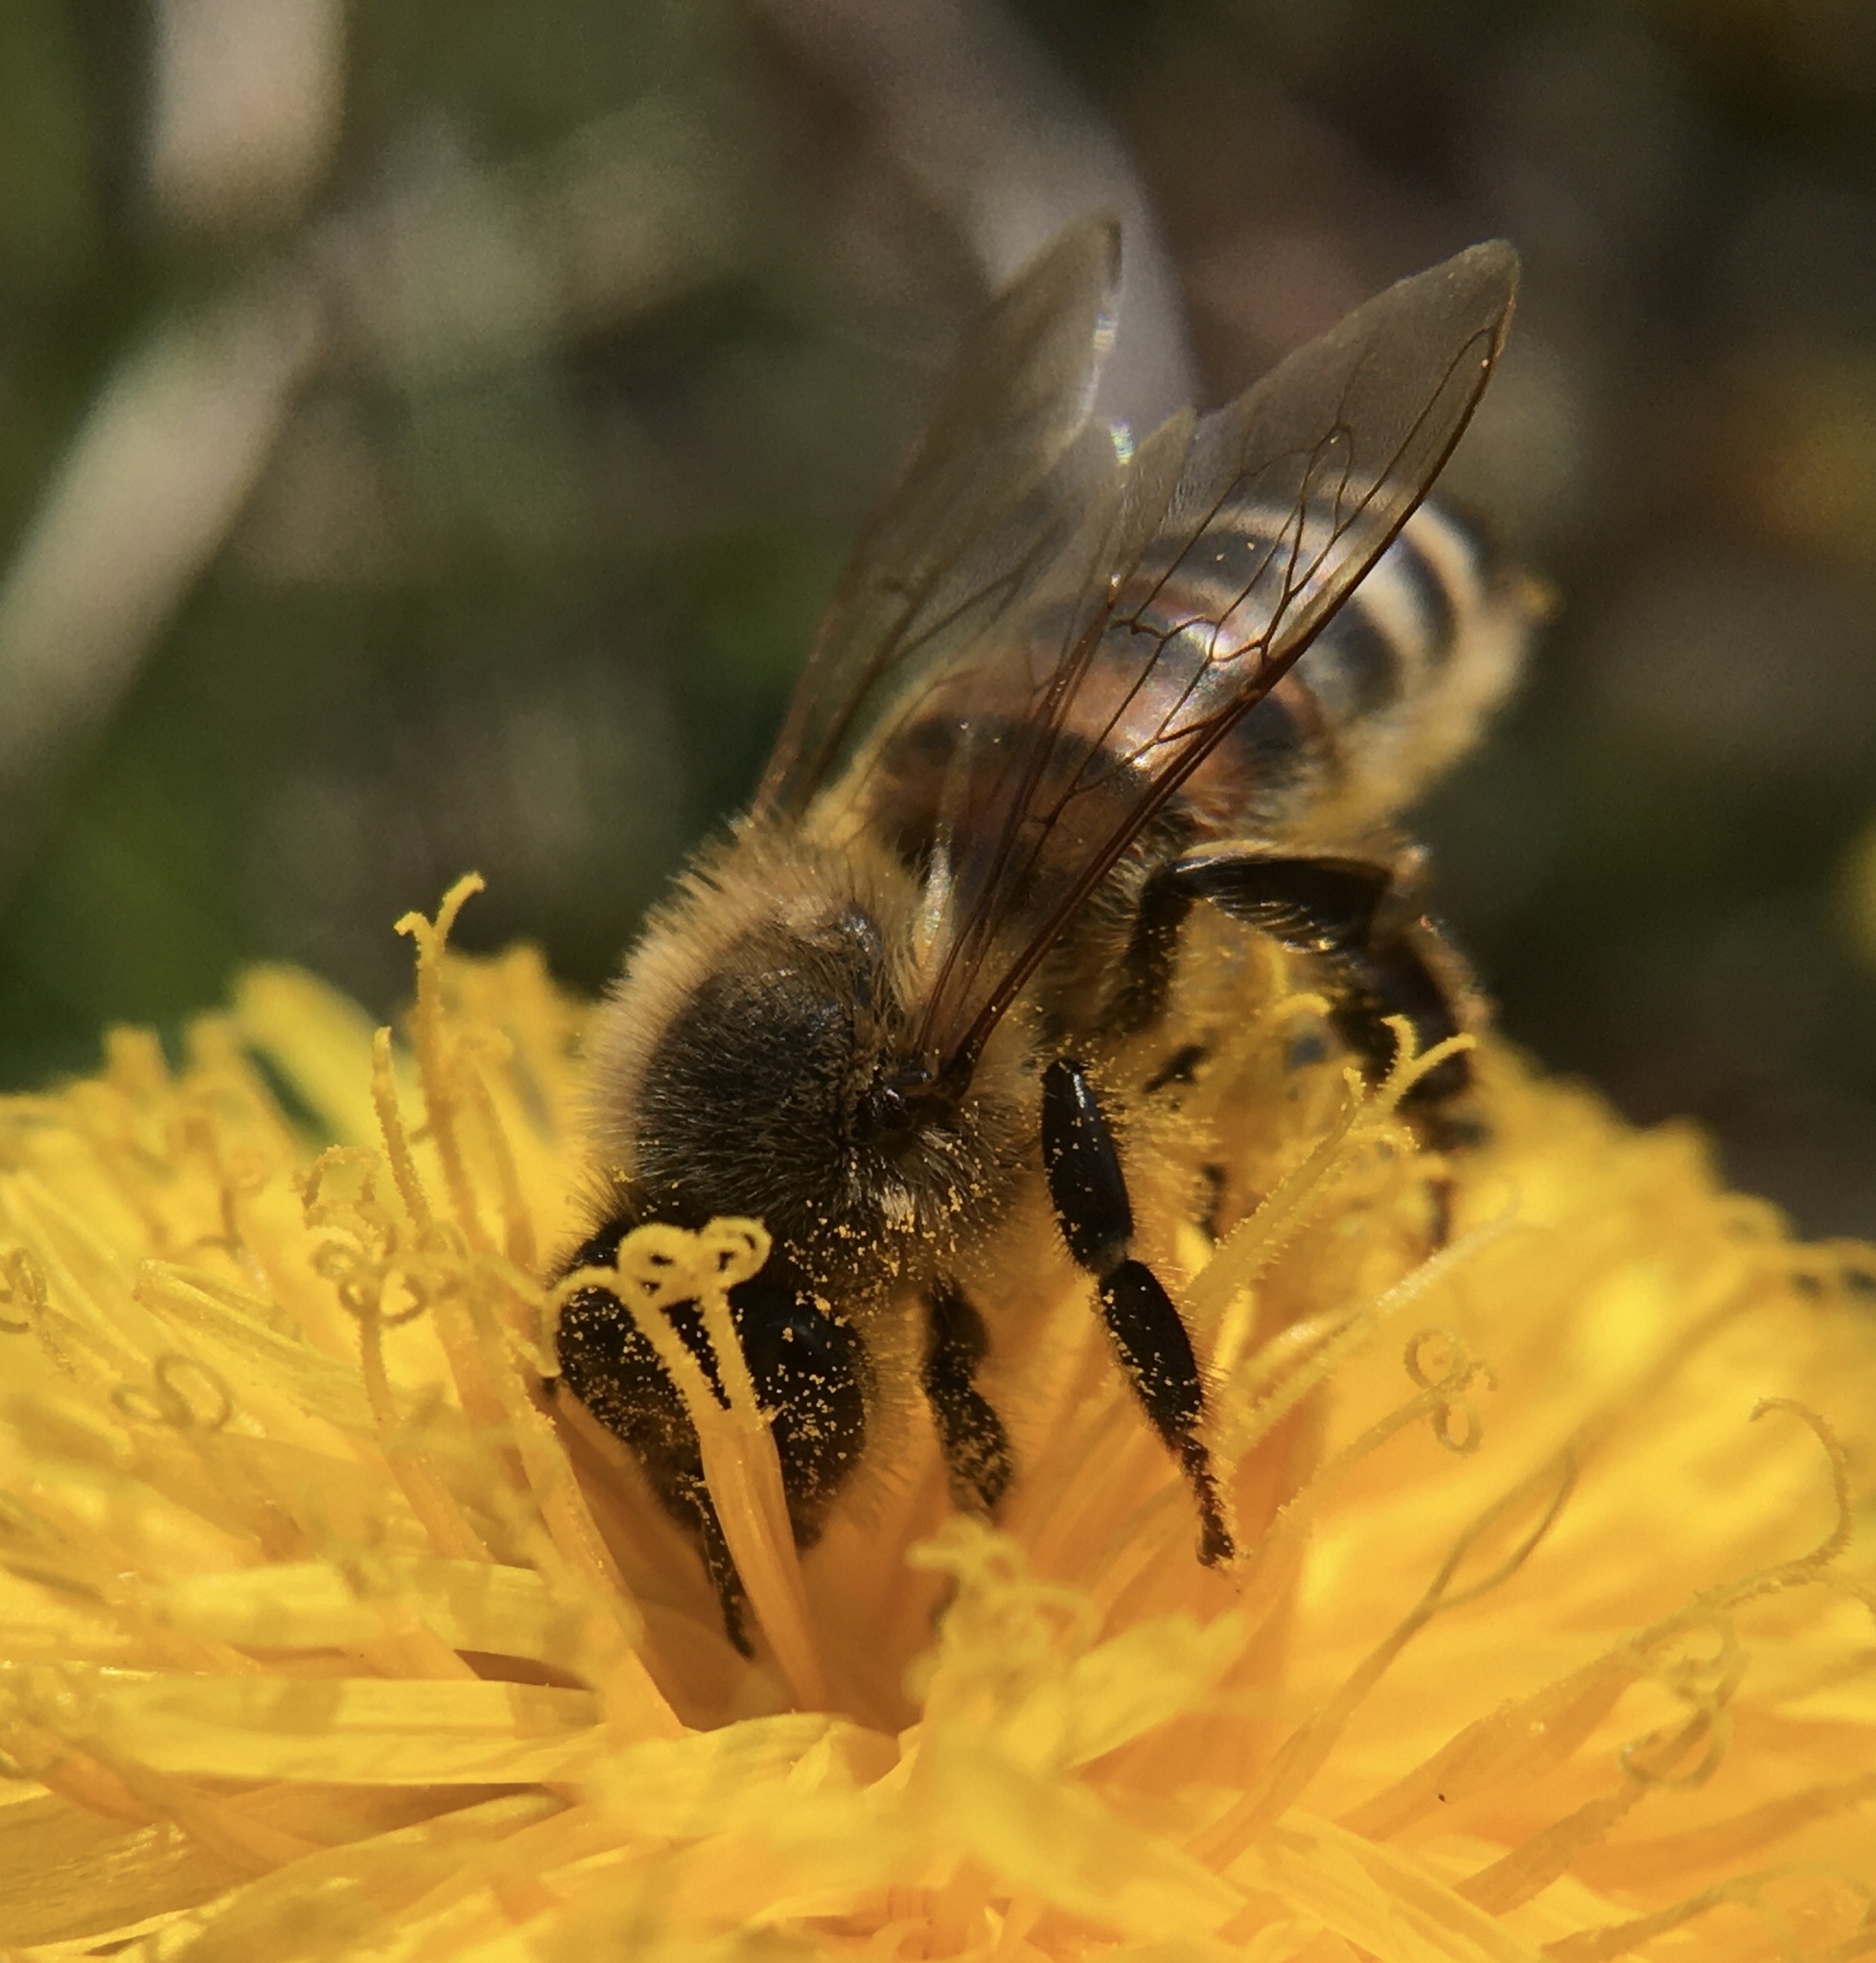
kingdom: Animalia
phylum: Arthropoda
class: Insecta
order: Hymenoptera
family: Apidae
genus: Apis
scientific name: Apis mellifera
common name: Honey bee
